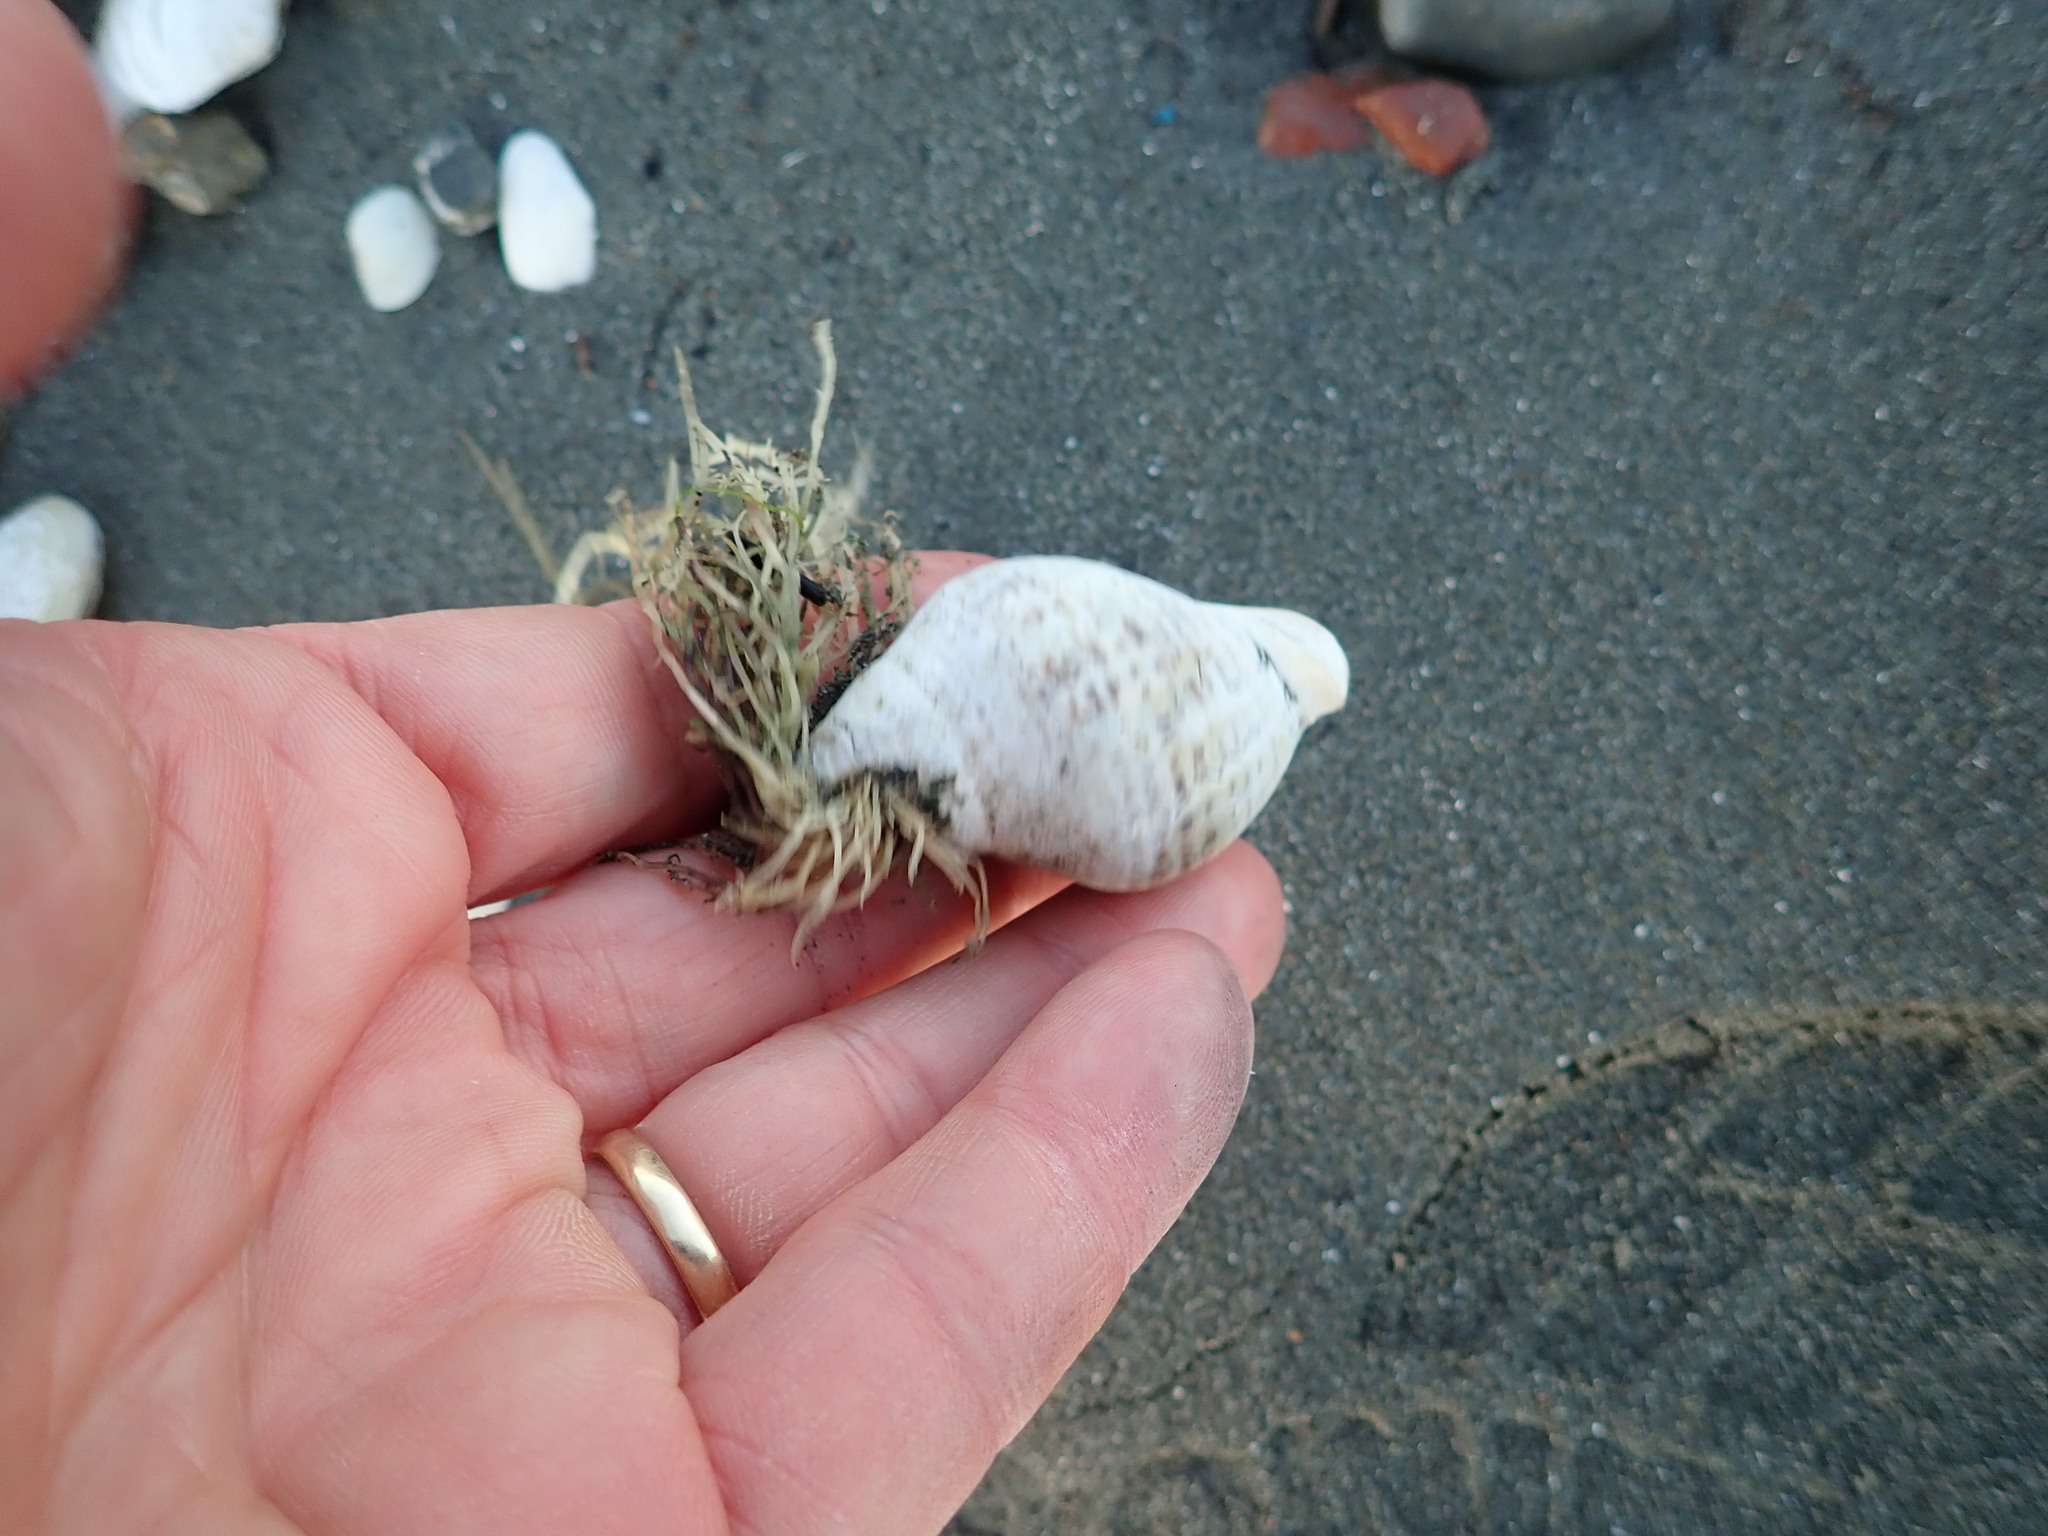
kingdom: Animalia
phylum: Mollusca
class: Gastropoda
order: Neogastropoda
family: Cominellidae
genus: Cominella
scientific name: Cominella adspersa
